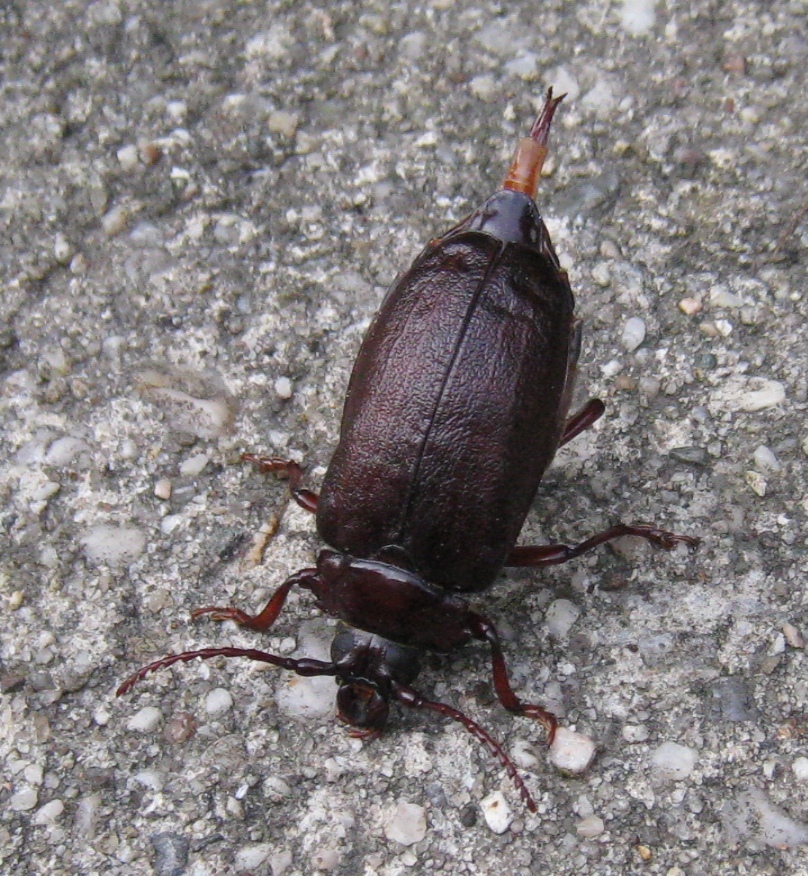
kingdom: Animalia
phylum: Arthropoda
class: Insecta
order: Coleoptera
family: Cerambycidae
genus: Prionus
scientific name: Prionus laticollis
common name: Broad necked prionus
